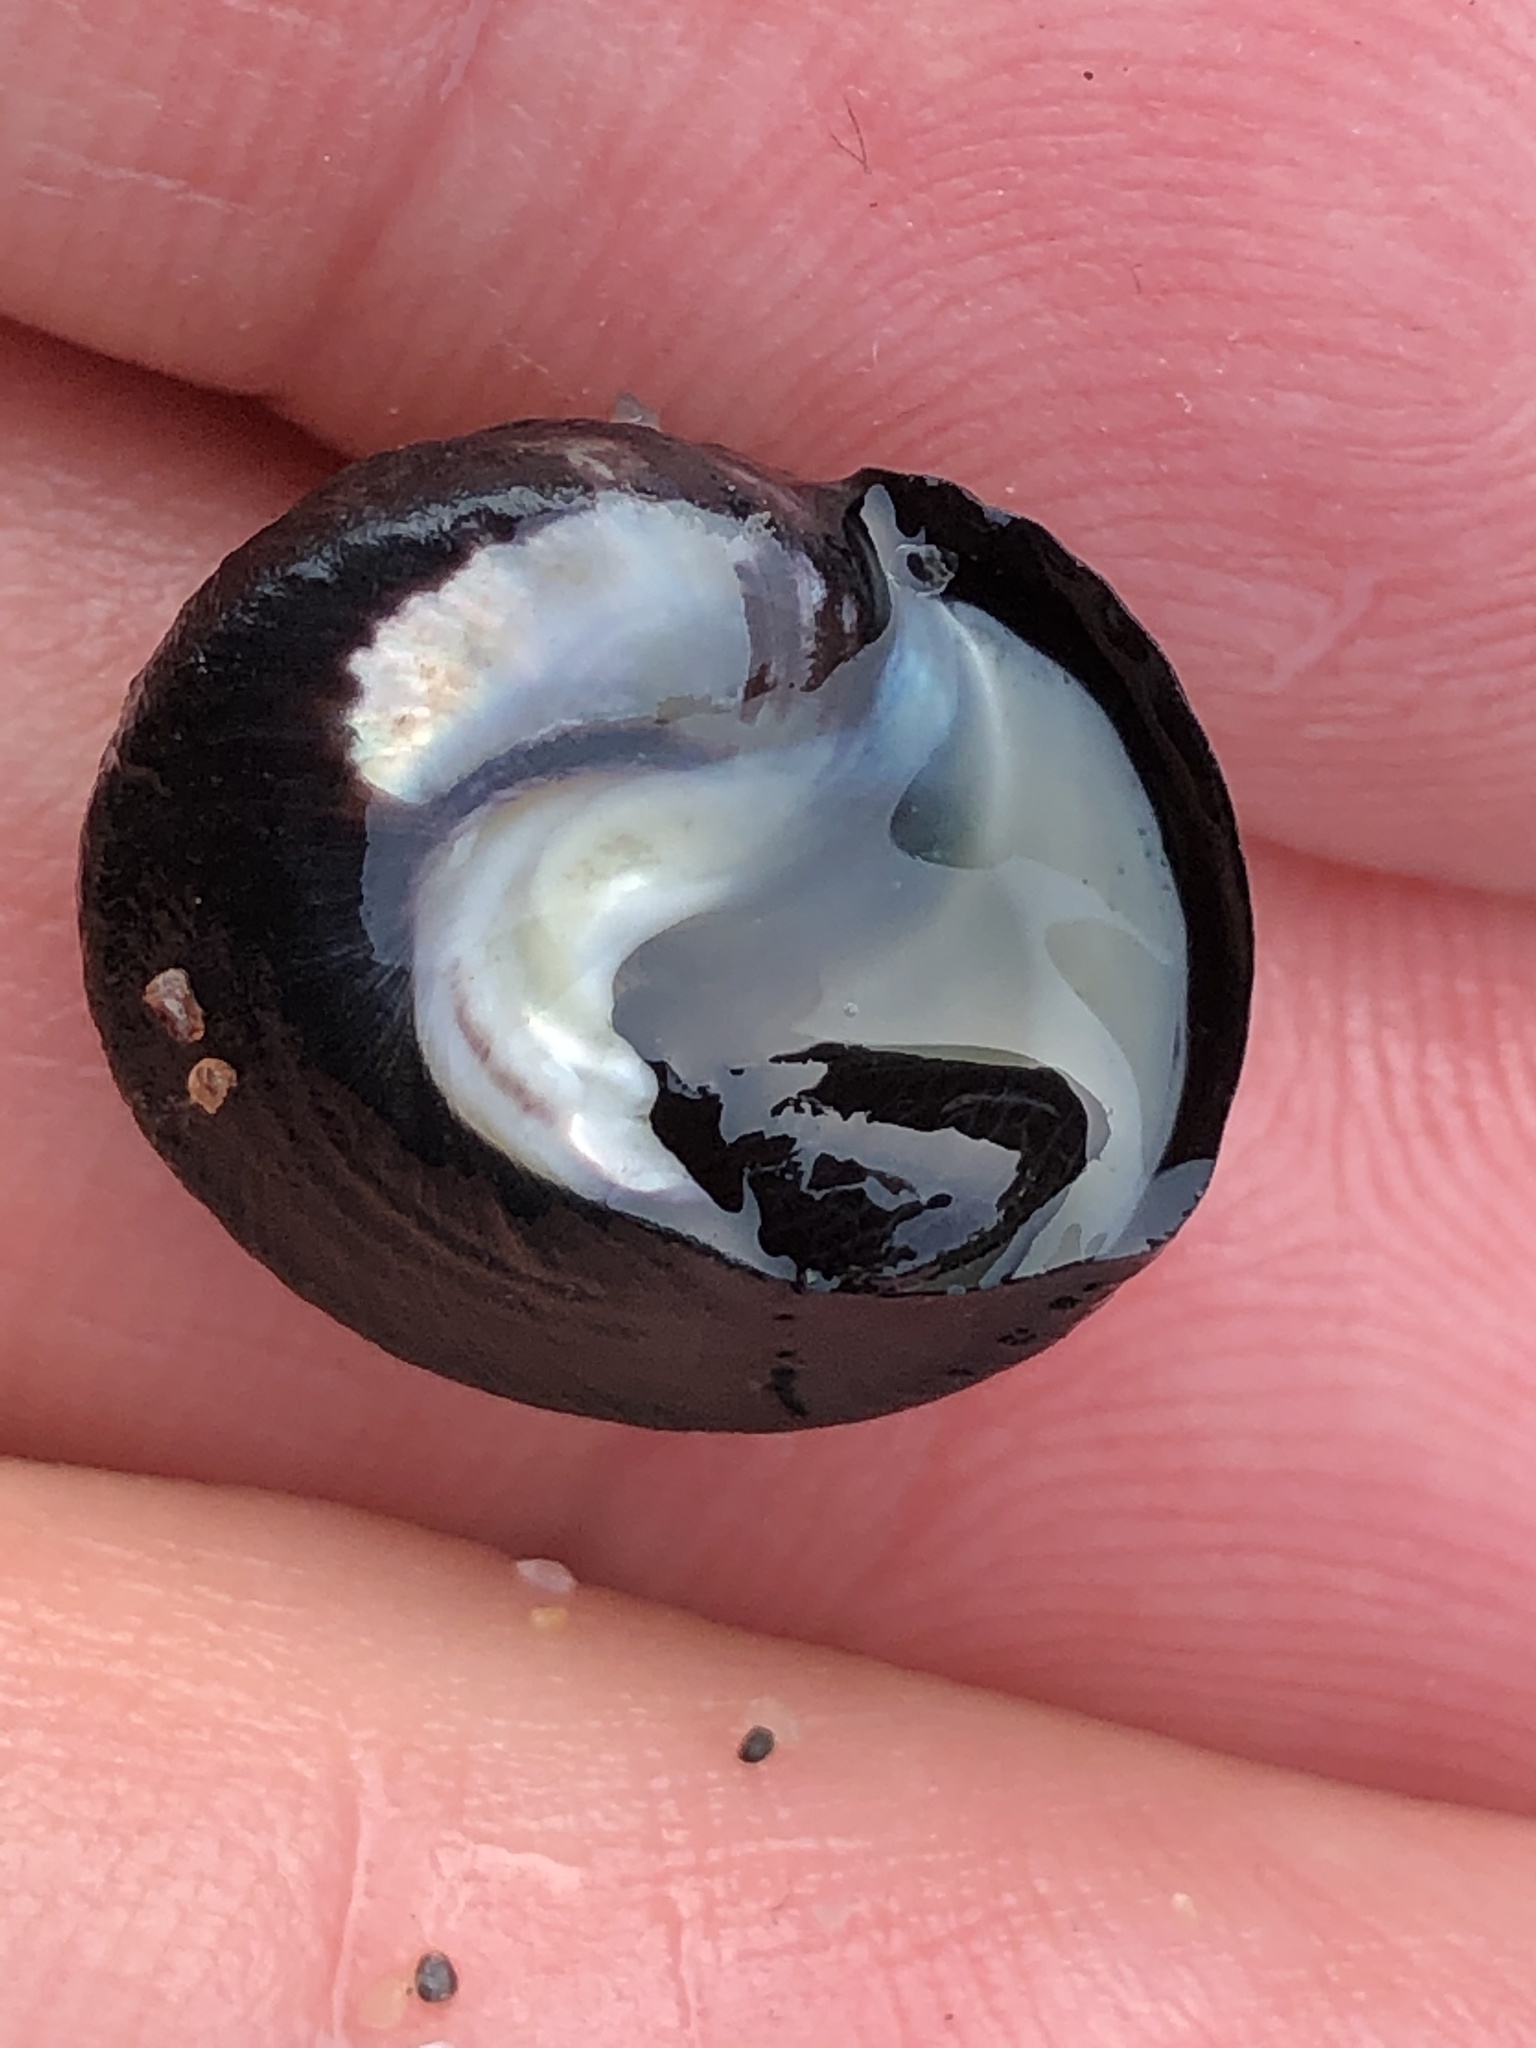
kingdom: Animalia
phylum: Mollusca
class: Gastropoda
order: Trochida
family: Tegulidae
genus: Tegula
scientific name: Tegula funebralis
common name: Black tegula
